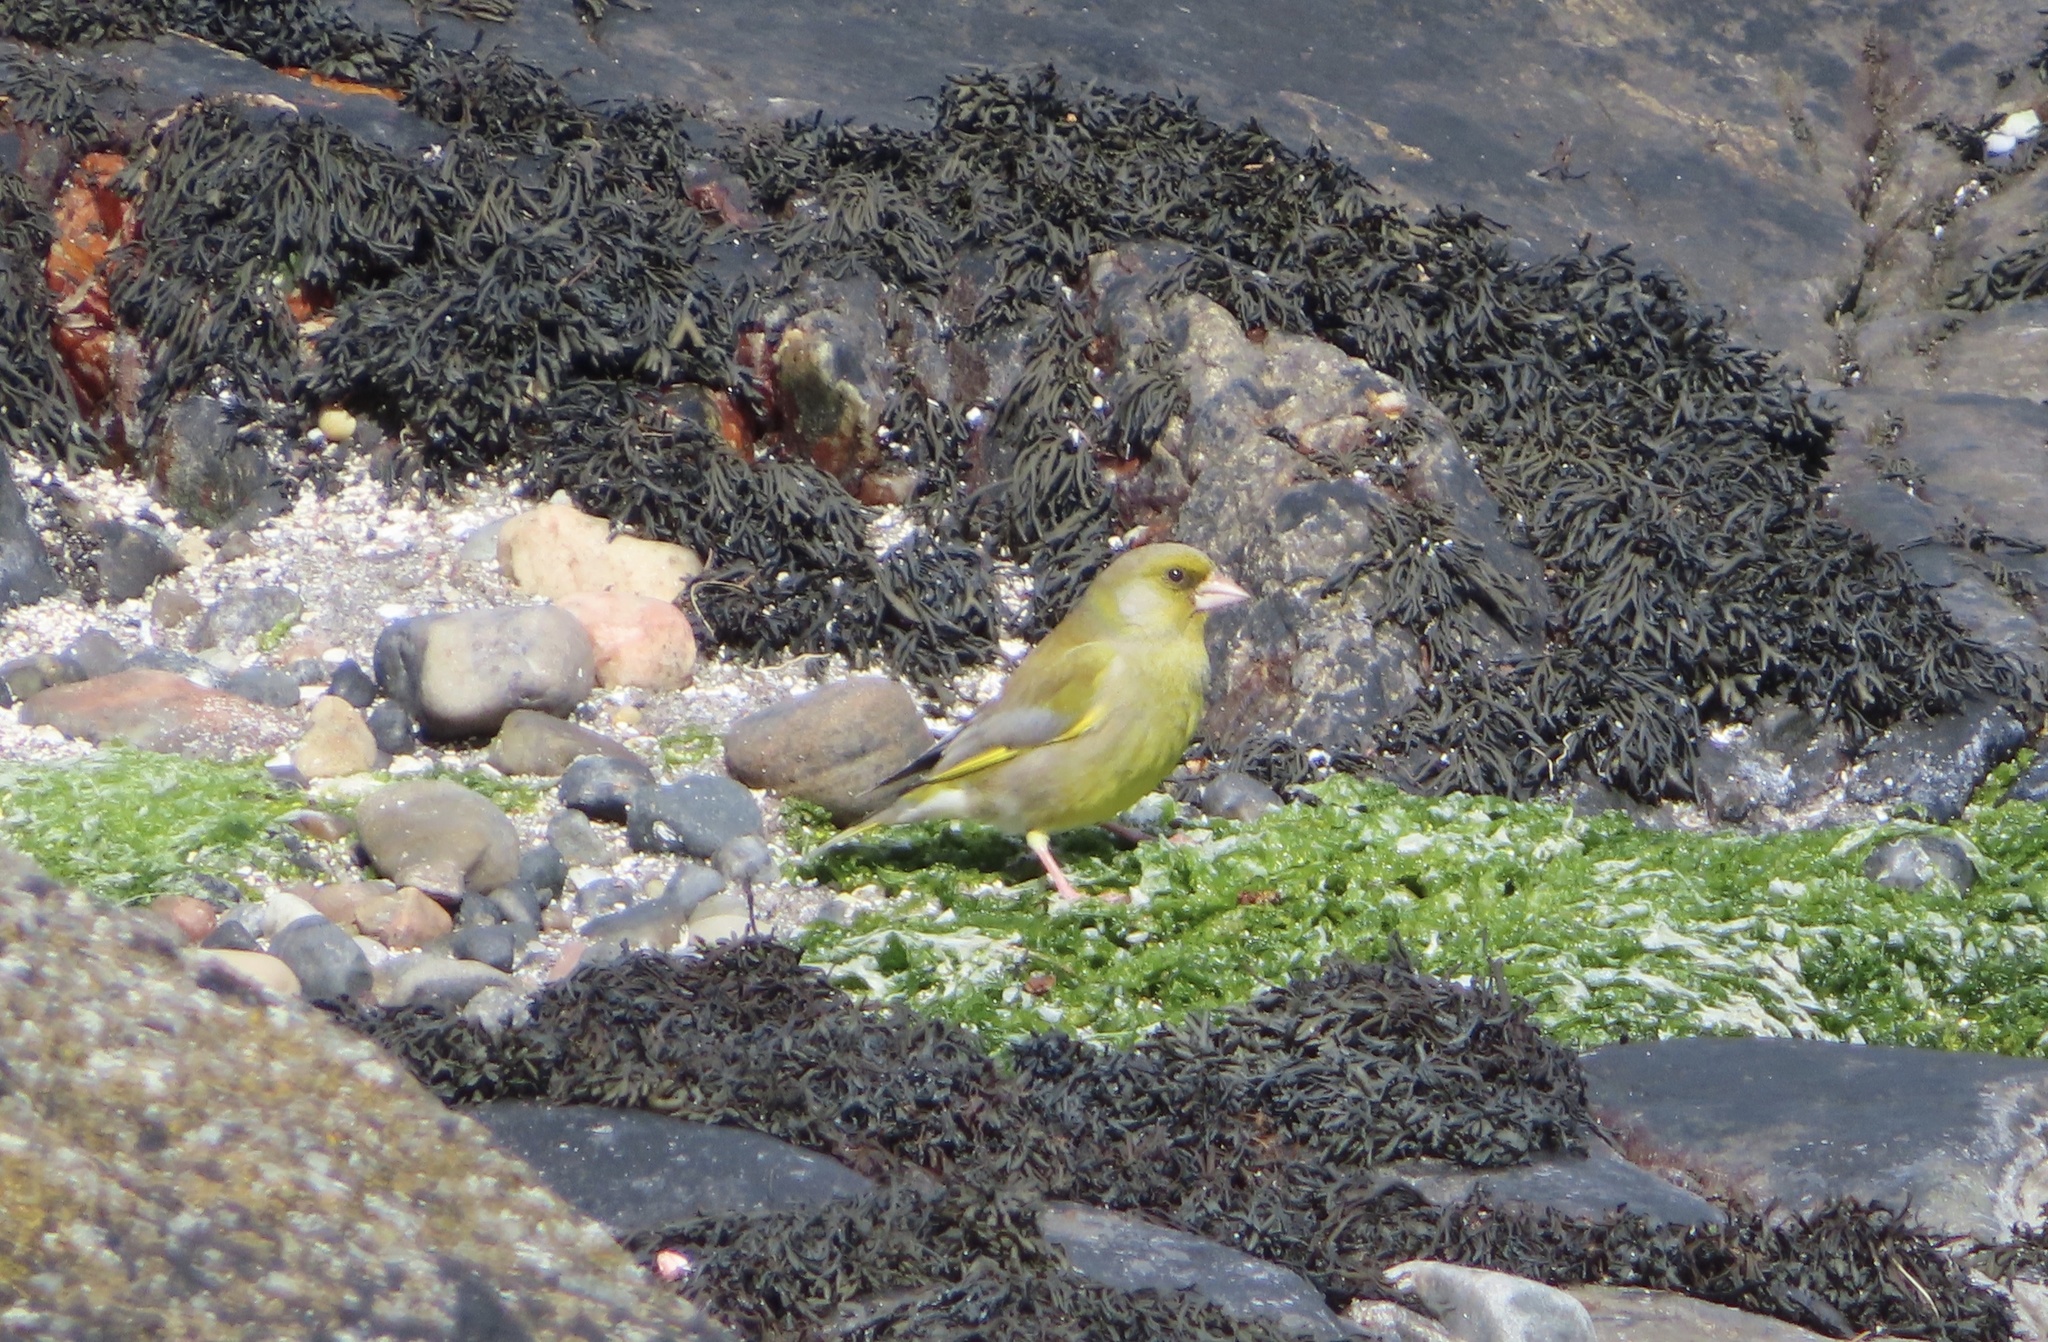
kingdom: Plantae
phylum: Tracheophyta
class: Liliopsida
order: Poales
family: Poaceae
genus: Chloris
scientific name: Chloris chloris
